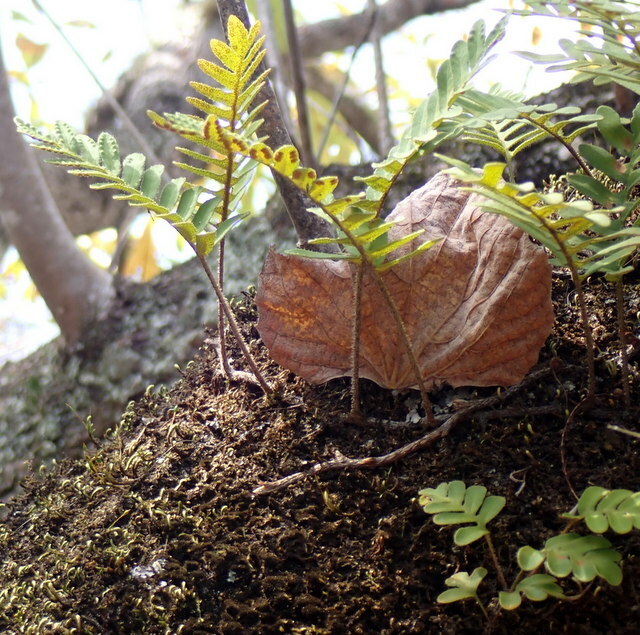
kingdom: Plantae
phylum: Tracheophyta
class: Polypodiopsida
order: Polypodiales
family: Polypodiaceae
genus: Pleopeltis
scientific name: Pleopeltis michauxiana
